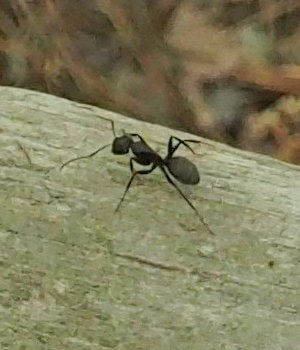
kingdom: Animalia
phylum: Arthropoda
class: Insecta
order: Hymenoptera
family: Formicidae
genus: Camponotus
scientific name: Camponotus pennsylvanicus
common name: Black carpenter ant
